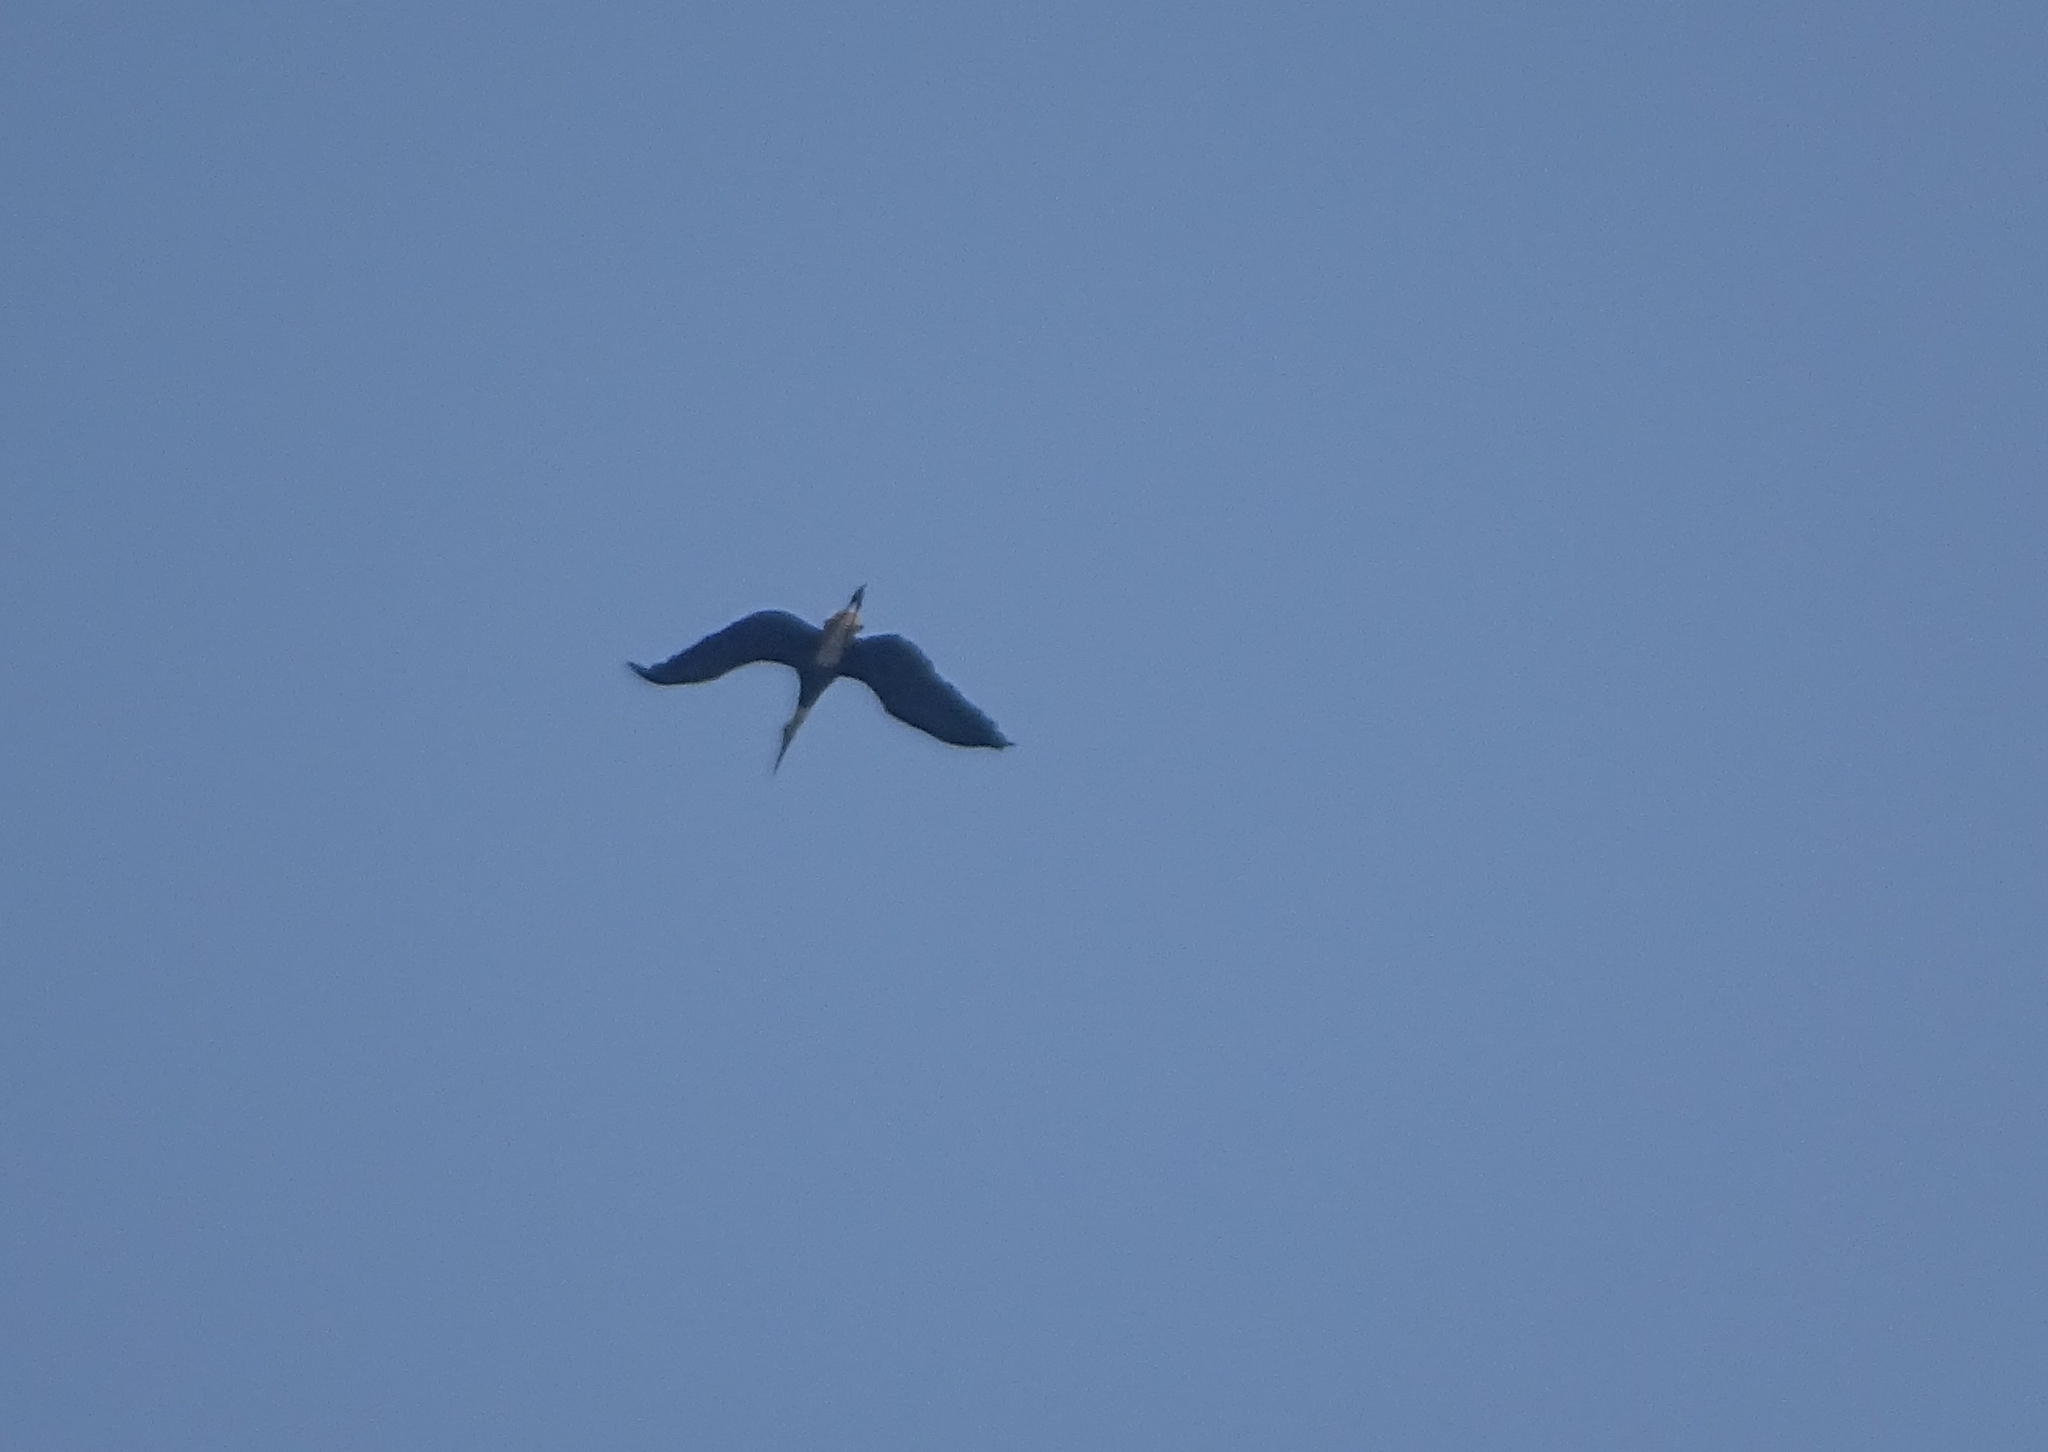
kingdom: Animalia
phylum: Chordata
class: Aves
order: Ciconiiformes
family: Ciconiidae
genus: Ciconia
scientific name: Ciconia episcopus
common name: Woolly-necked stork
